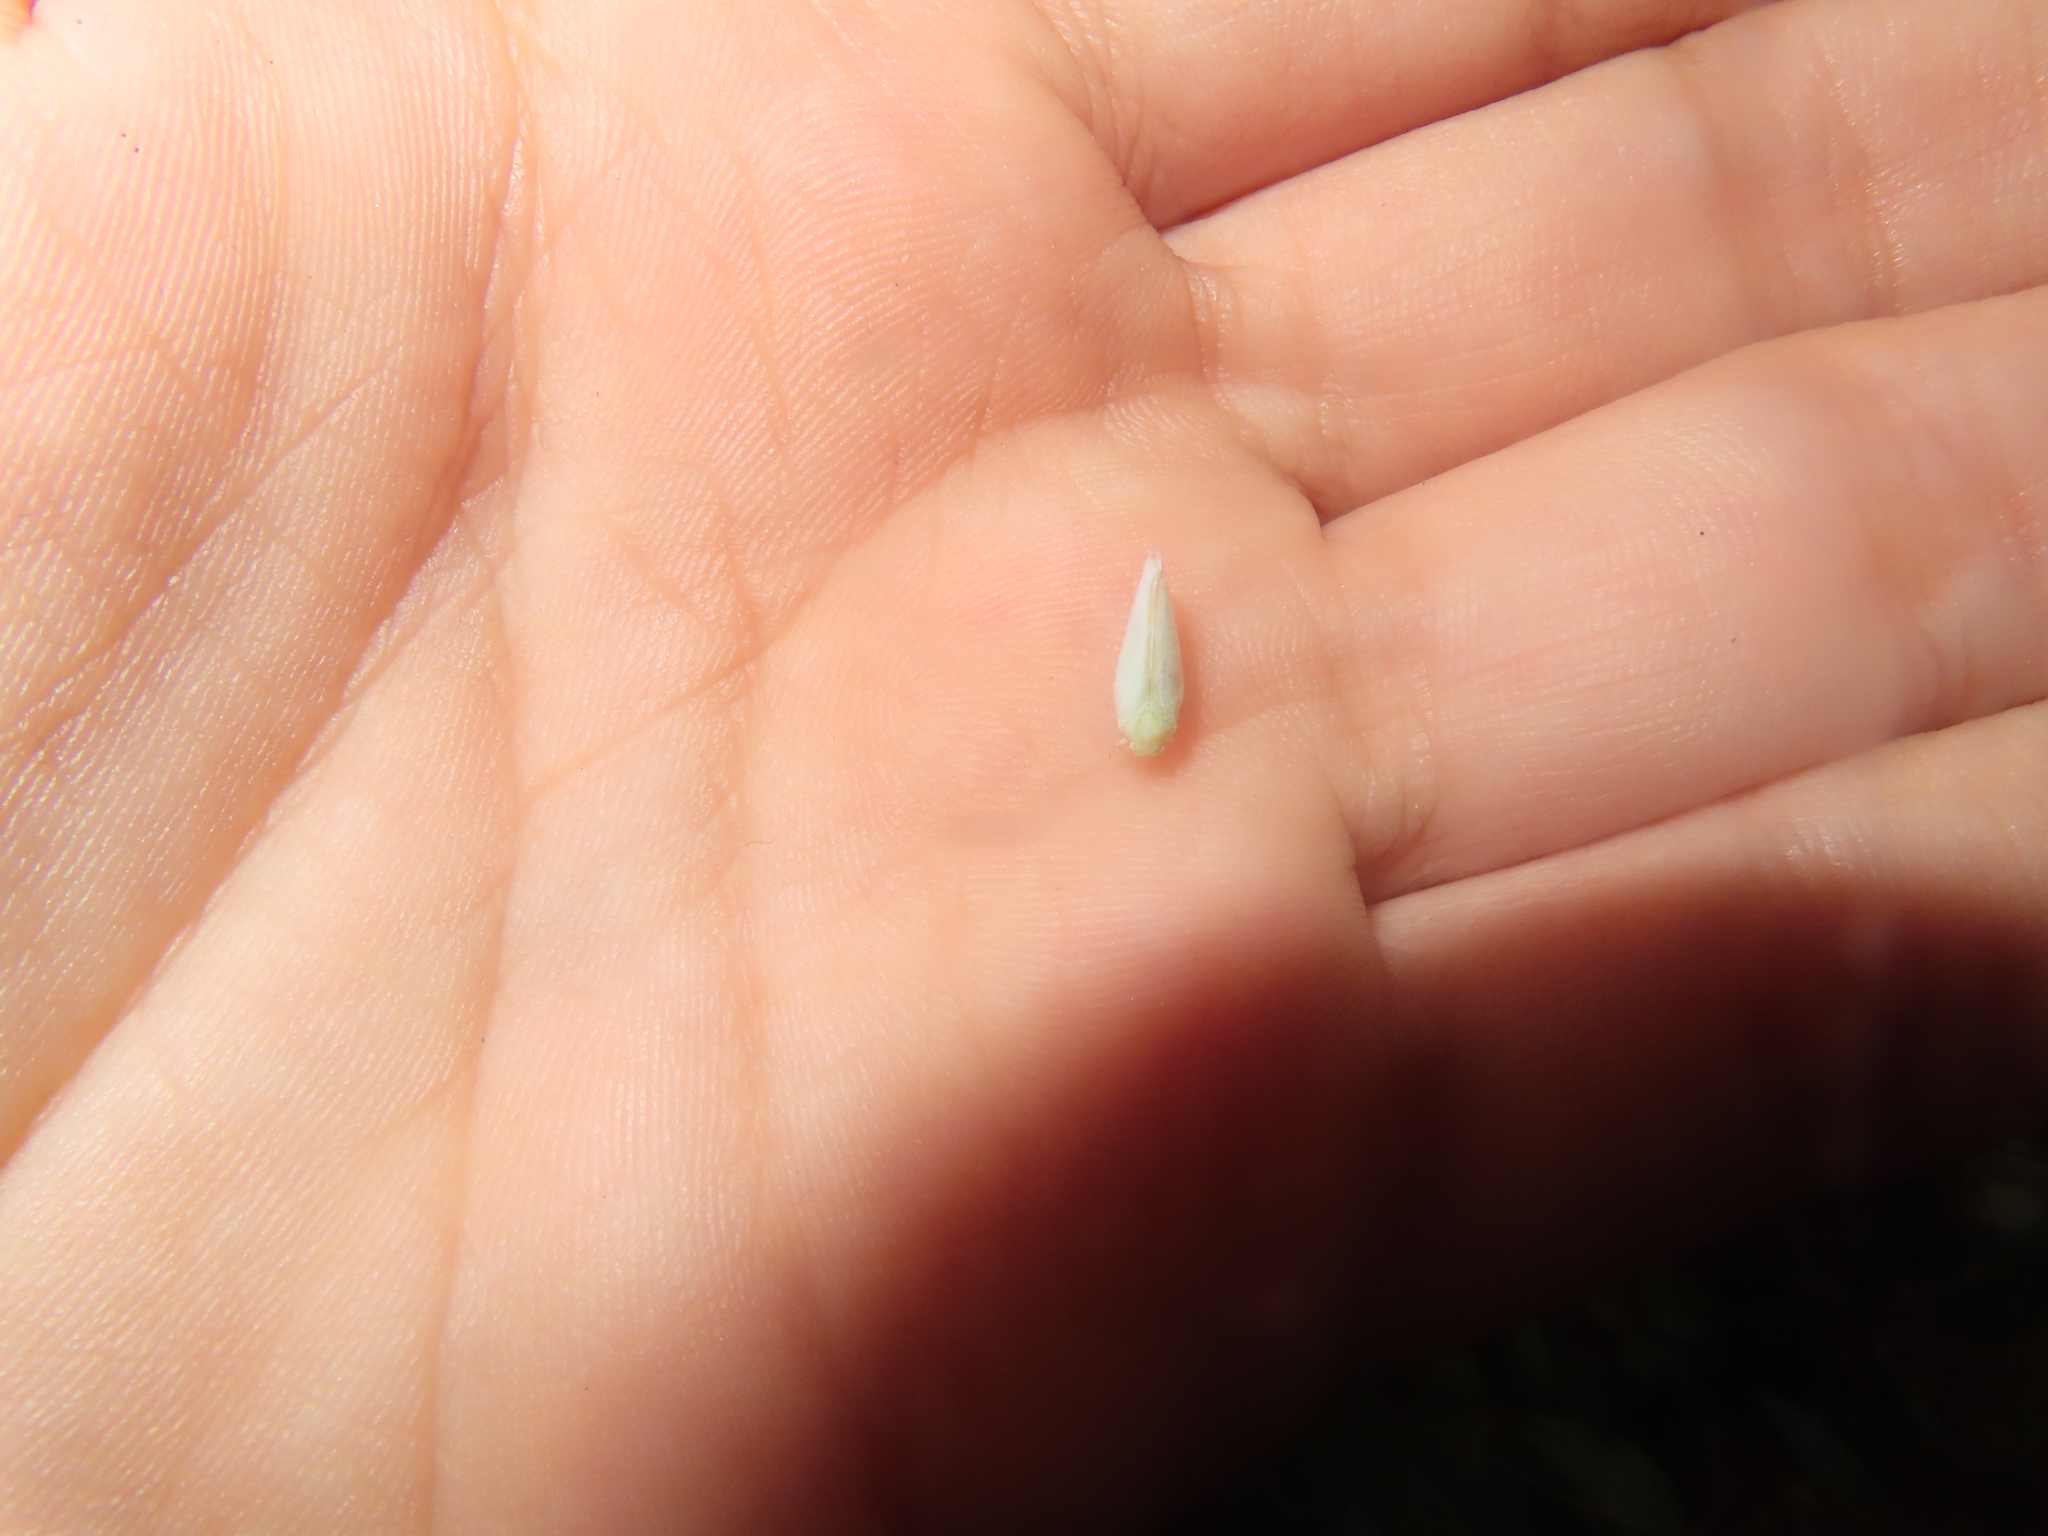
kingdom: Animalia
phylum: Arthropoda
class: Insecta
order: Hemiptera
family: Flatidae
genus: Ormenoides
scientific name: Ormenoides venusta
